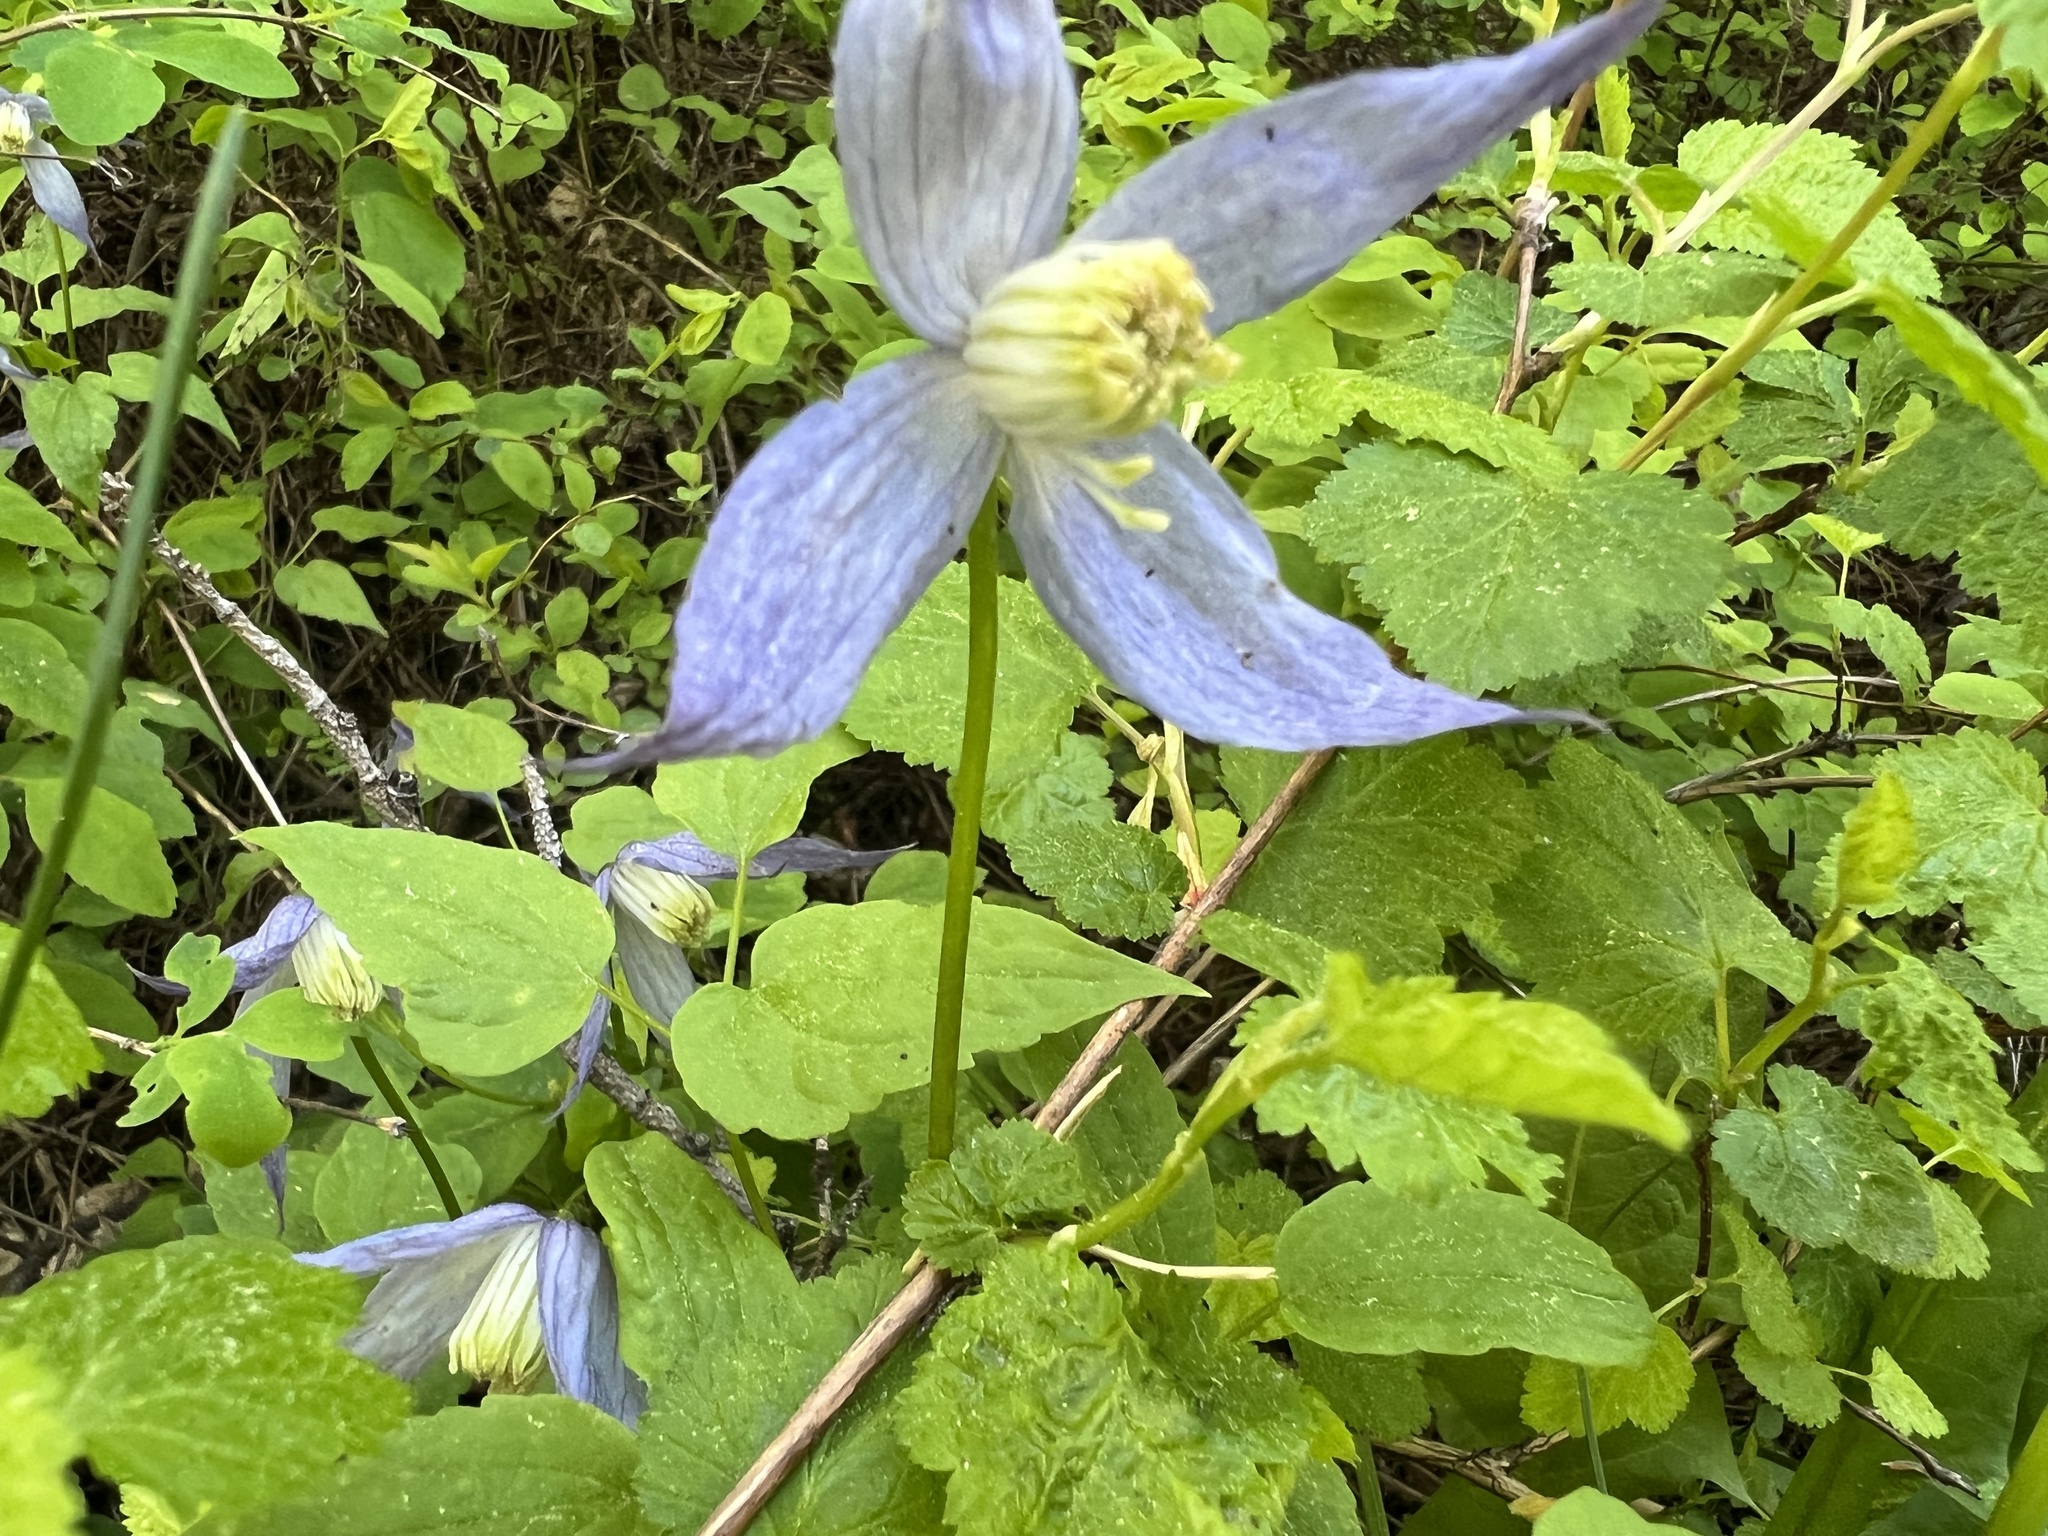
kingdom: Plantae
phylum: Tracheophyta
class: Magnoliopsida
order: Ranunculales
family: Ranunculaceae
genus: Clematis
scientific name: Clematis occidentalis
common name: Purple clematis
